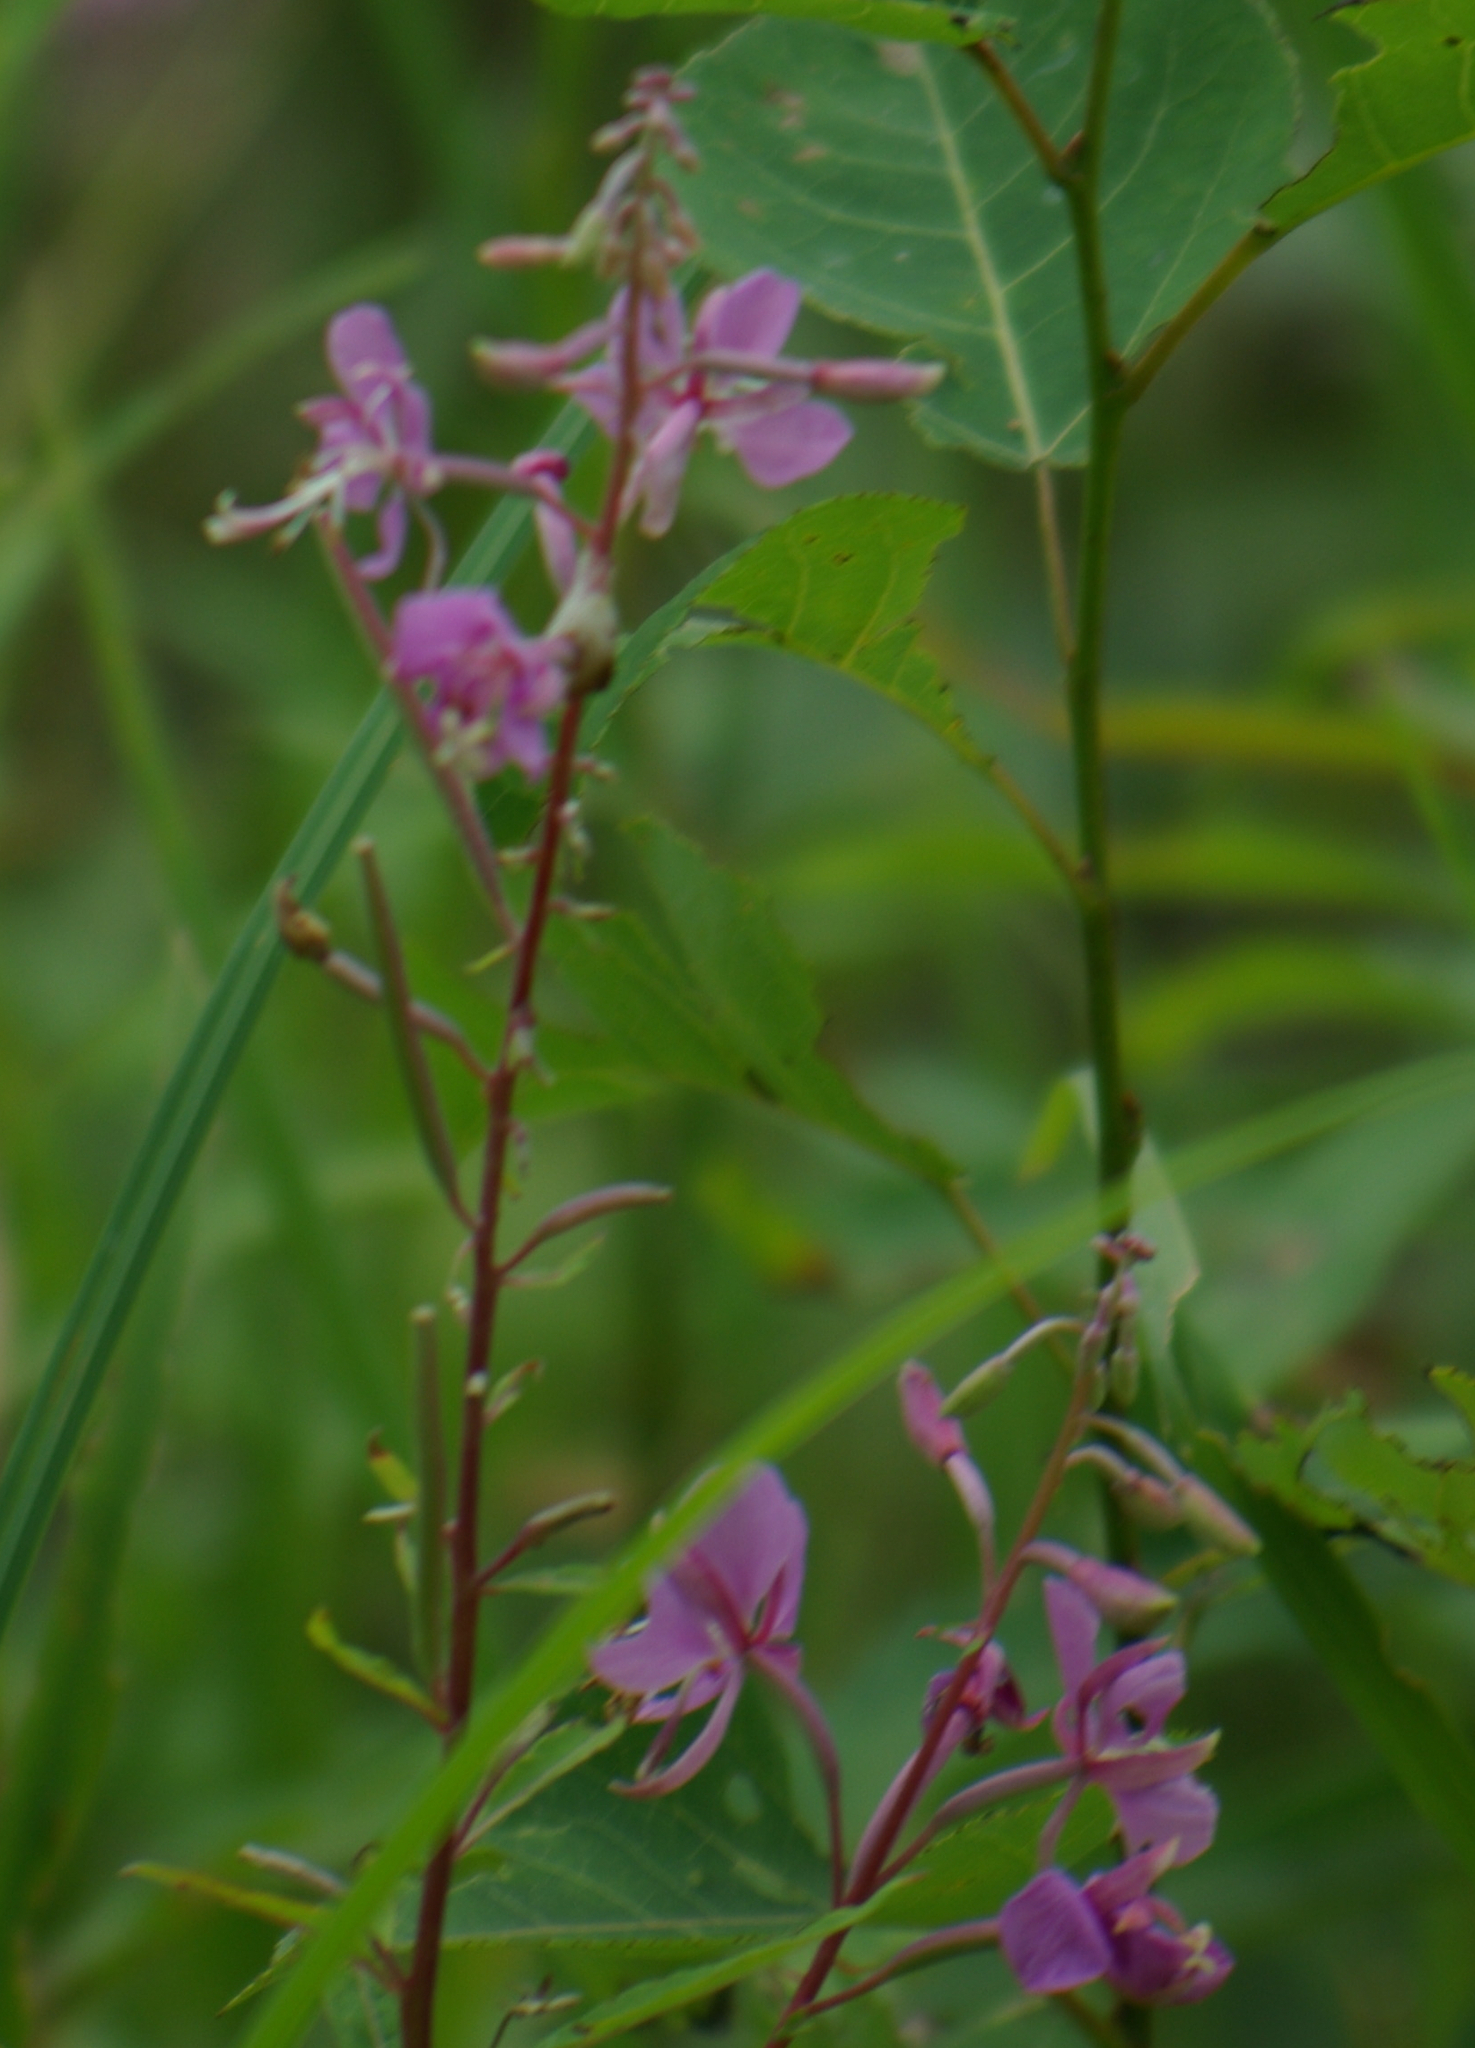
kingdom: Plantae
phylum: Tracheophyta
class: Magnoliopsida
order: Myrtales
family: Onagraceae
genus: Chamaenerion
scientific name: Chamaenerion angustifolium
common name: Fireweed
